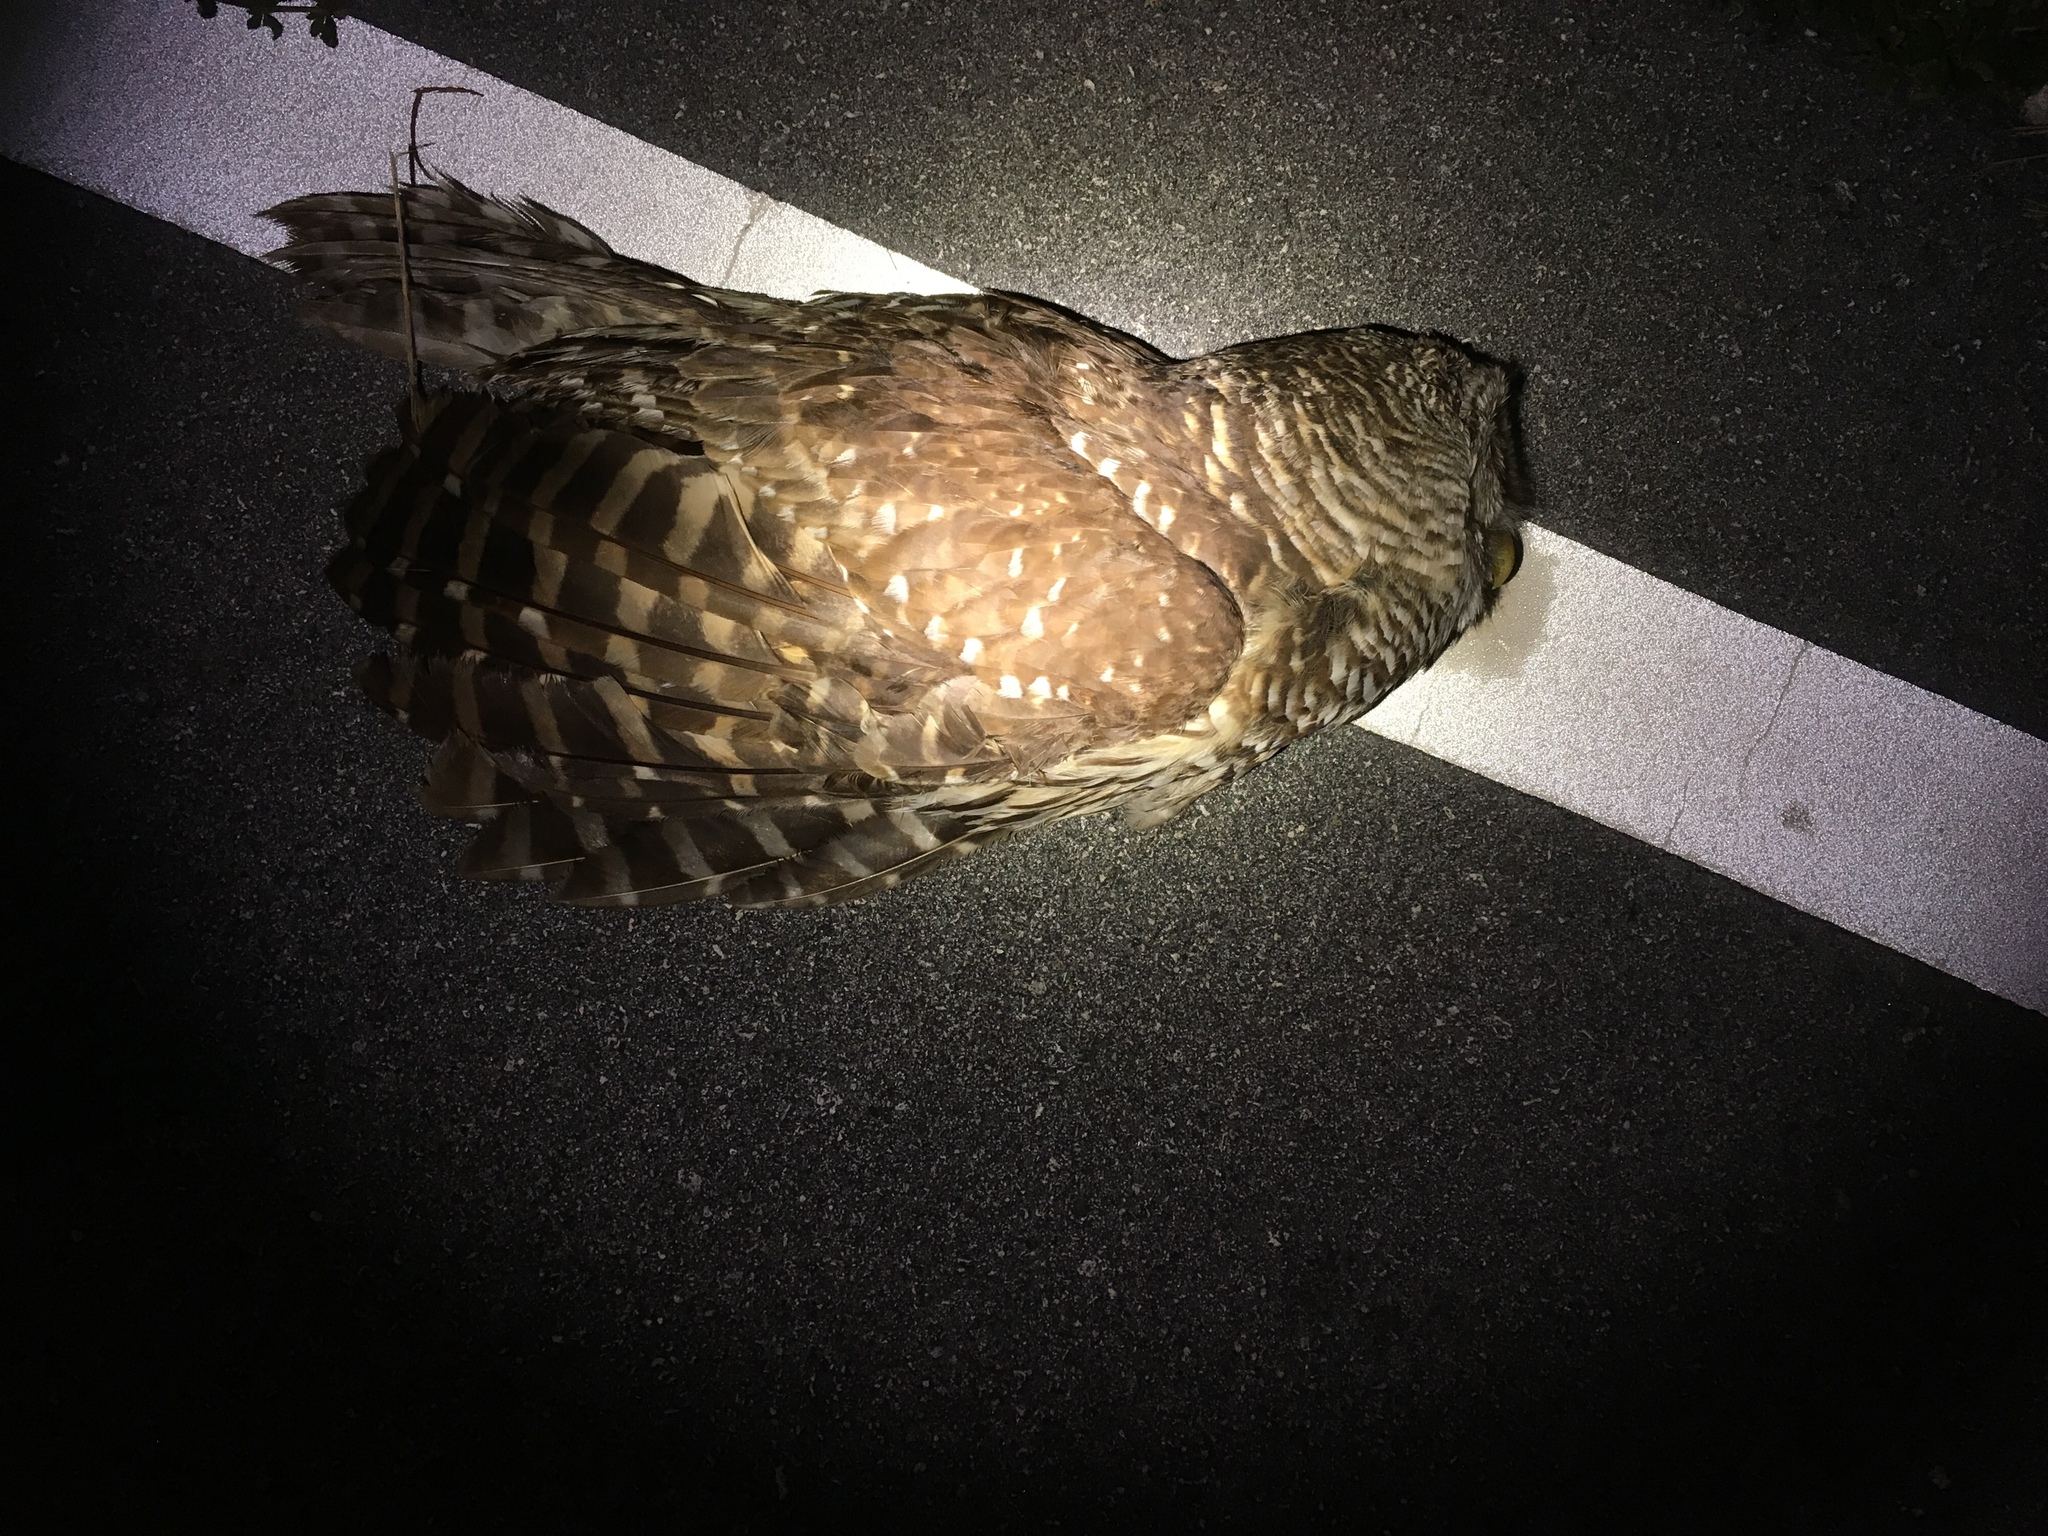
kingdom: Animalia
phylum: Chordata
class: Aves
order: Strigiformes
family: Strigidae
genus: Strix
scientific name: Strix varia
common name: Barred owl
